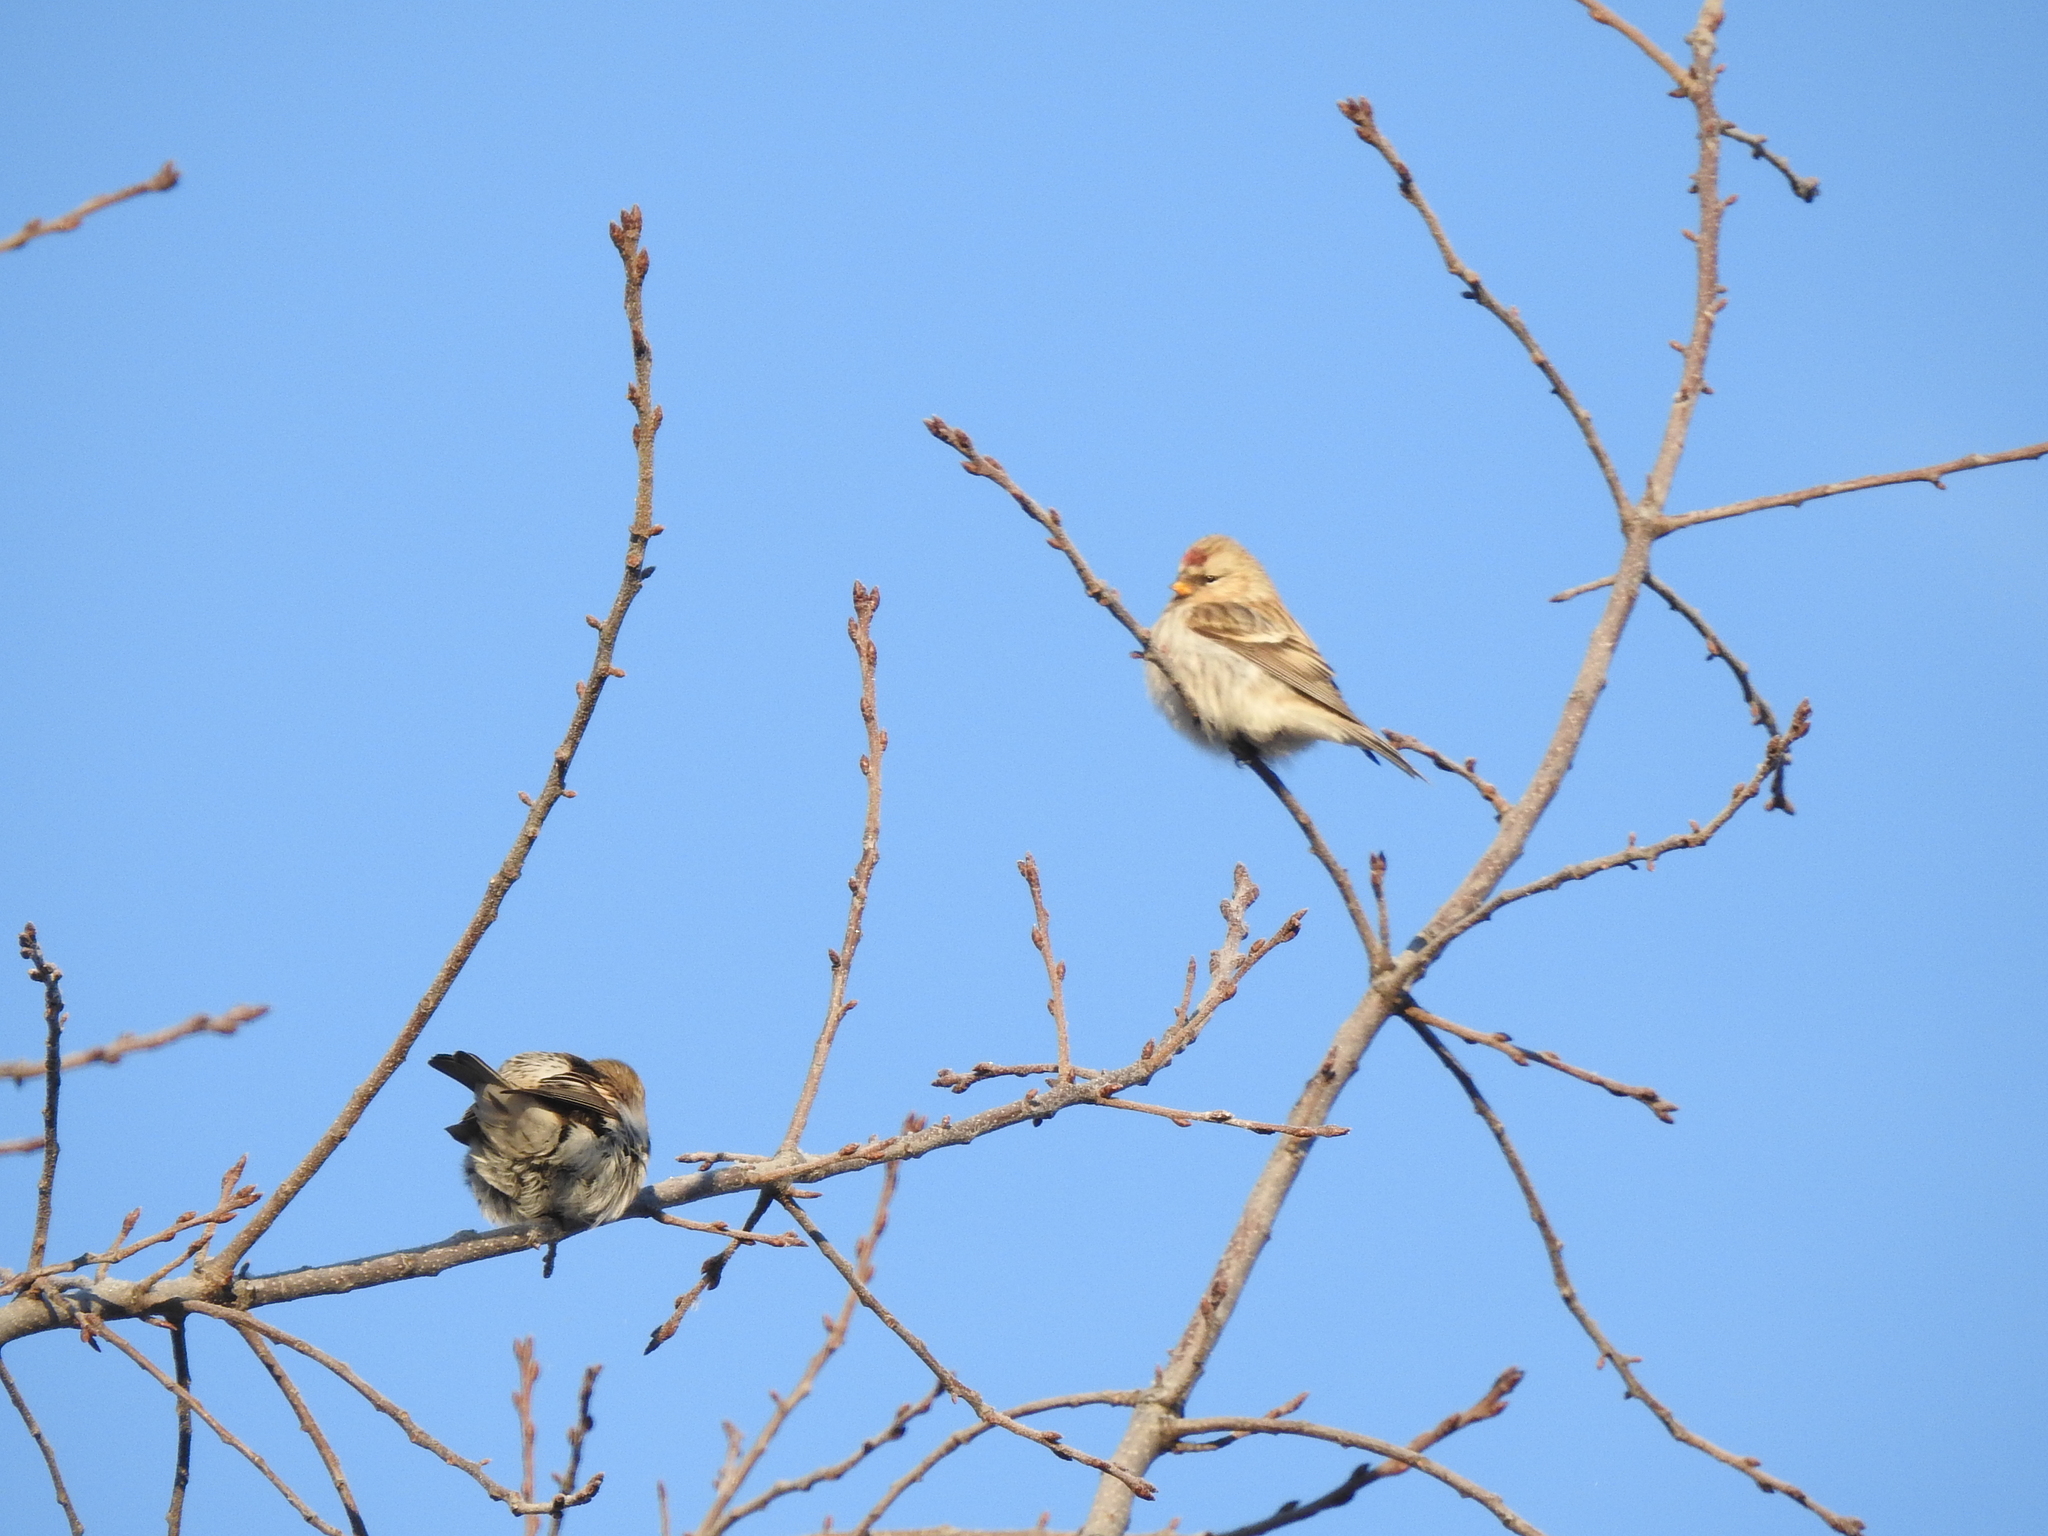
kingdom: Animalia
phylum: Chordata
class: Aves
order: Passeriformes
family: Fringillidae
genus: Acanthis
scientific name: Acanthis hornemanni
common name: Arctic redpoll
